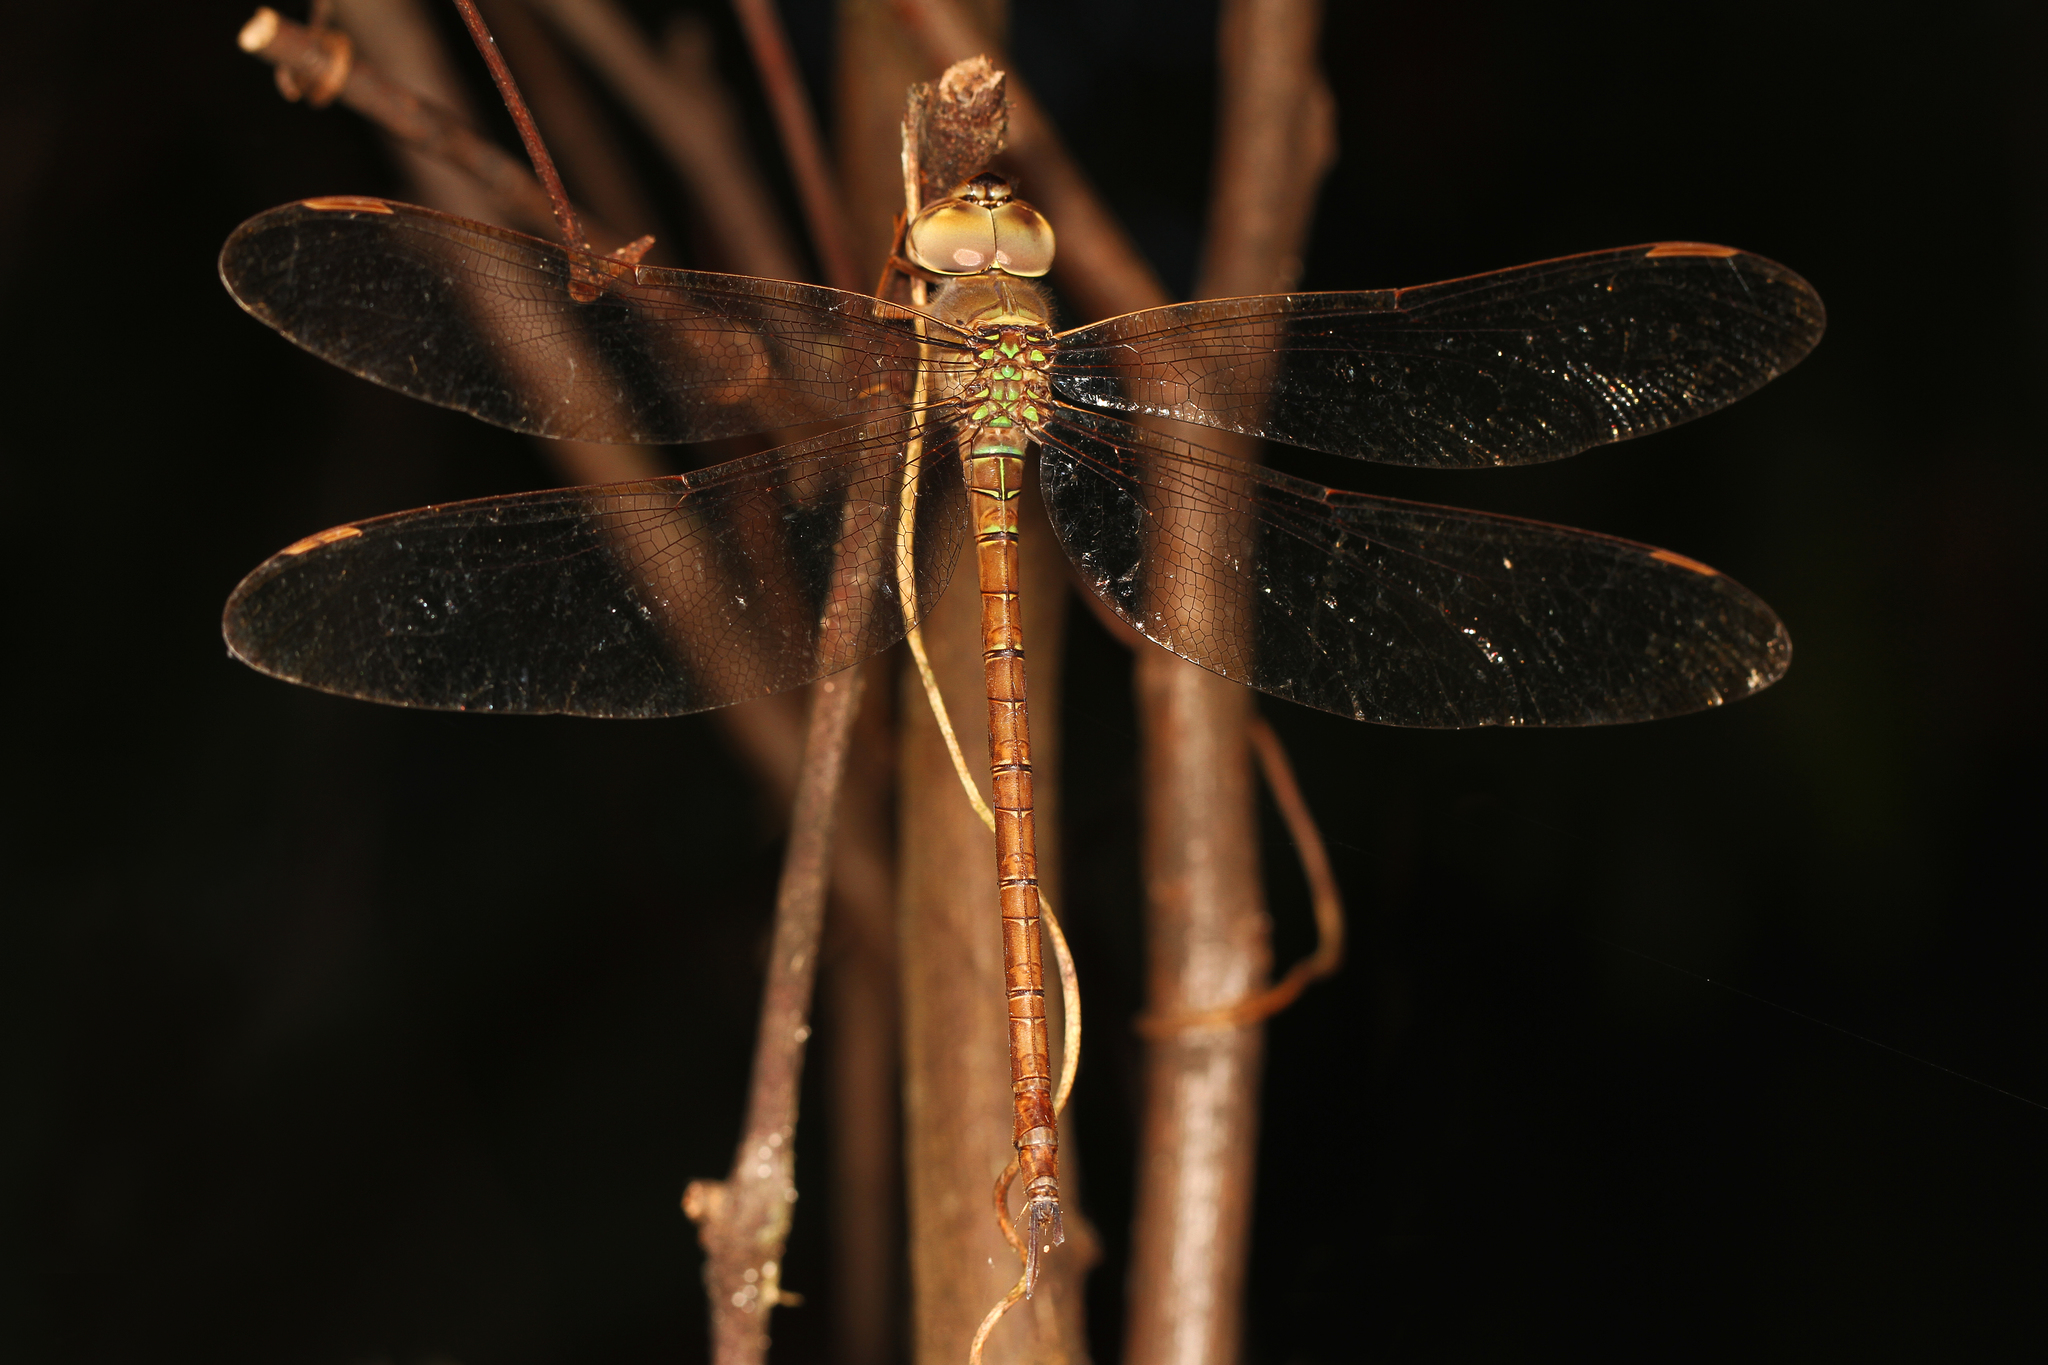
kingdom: Animalia
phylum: Arthropoda
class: Insecta
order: Odonata
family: Aeshnidae
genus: Gynacantha
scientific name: Gynacantha nervosa
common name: Twilight darner
